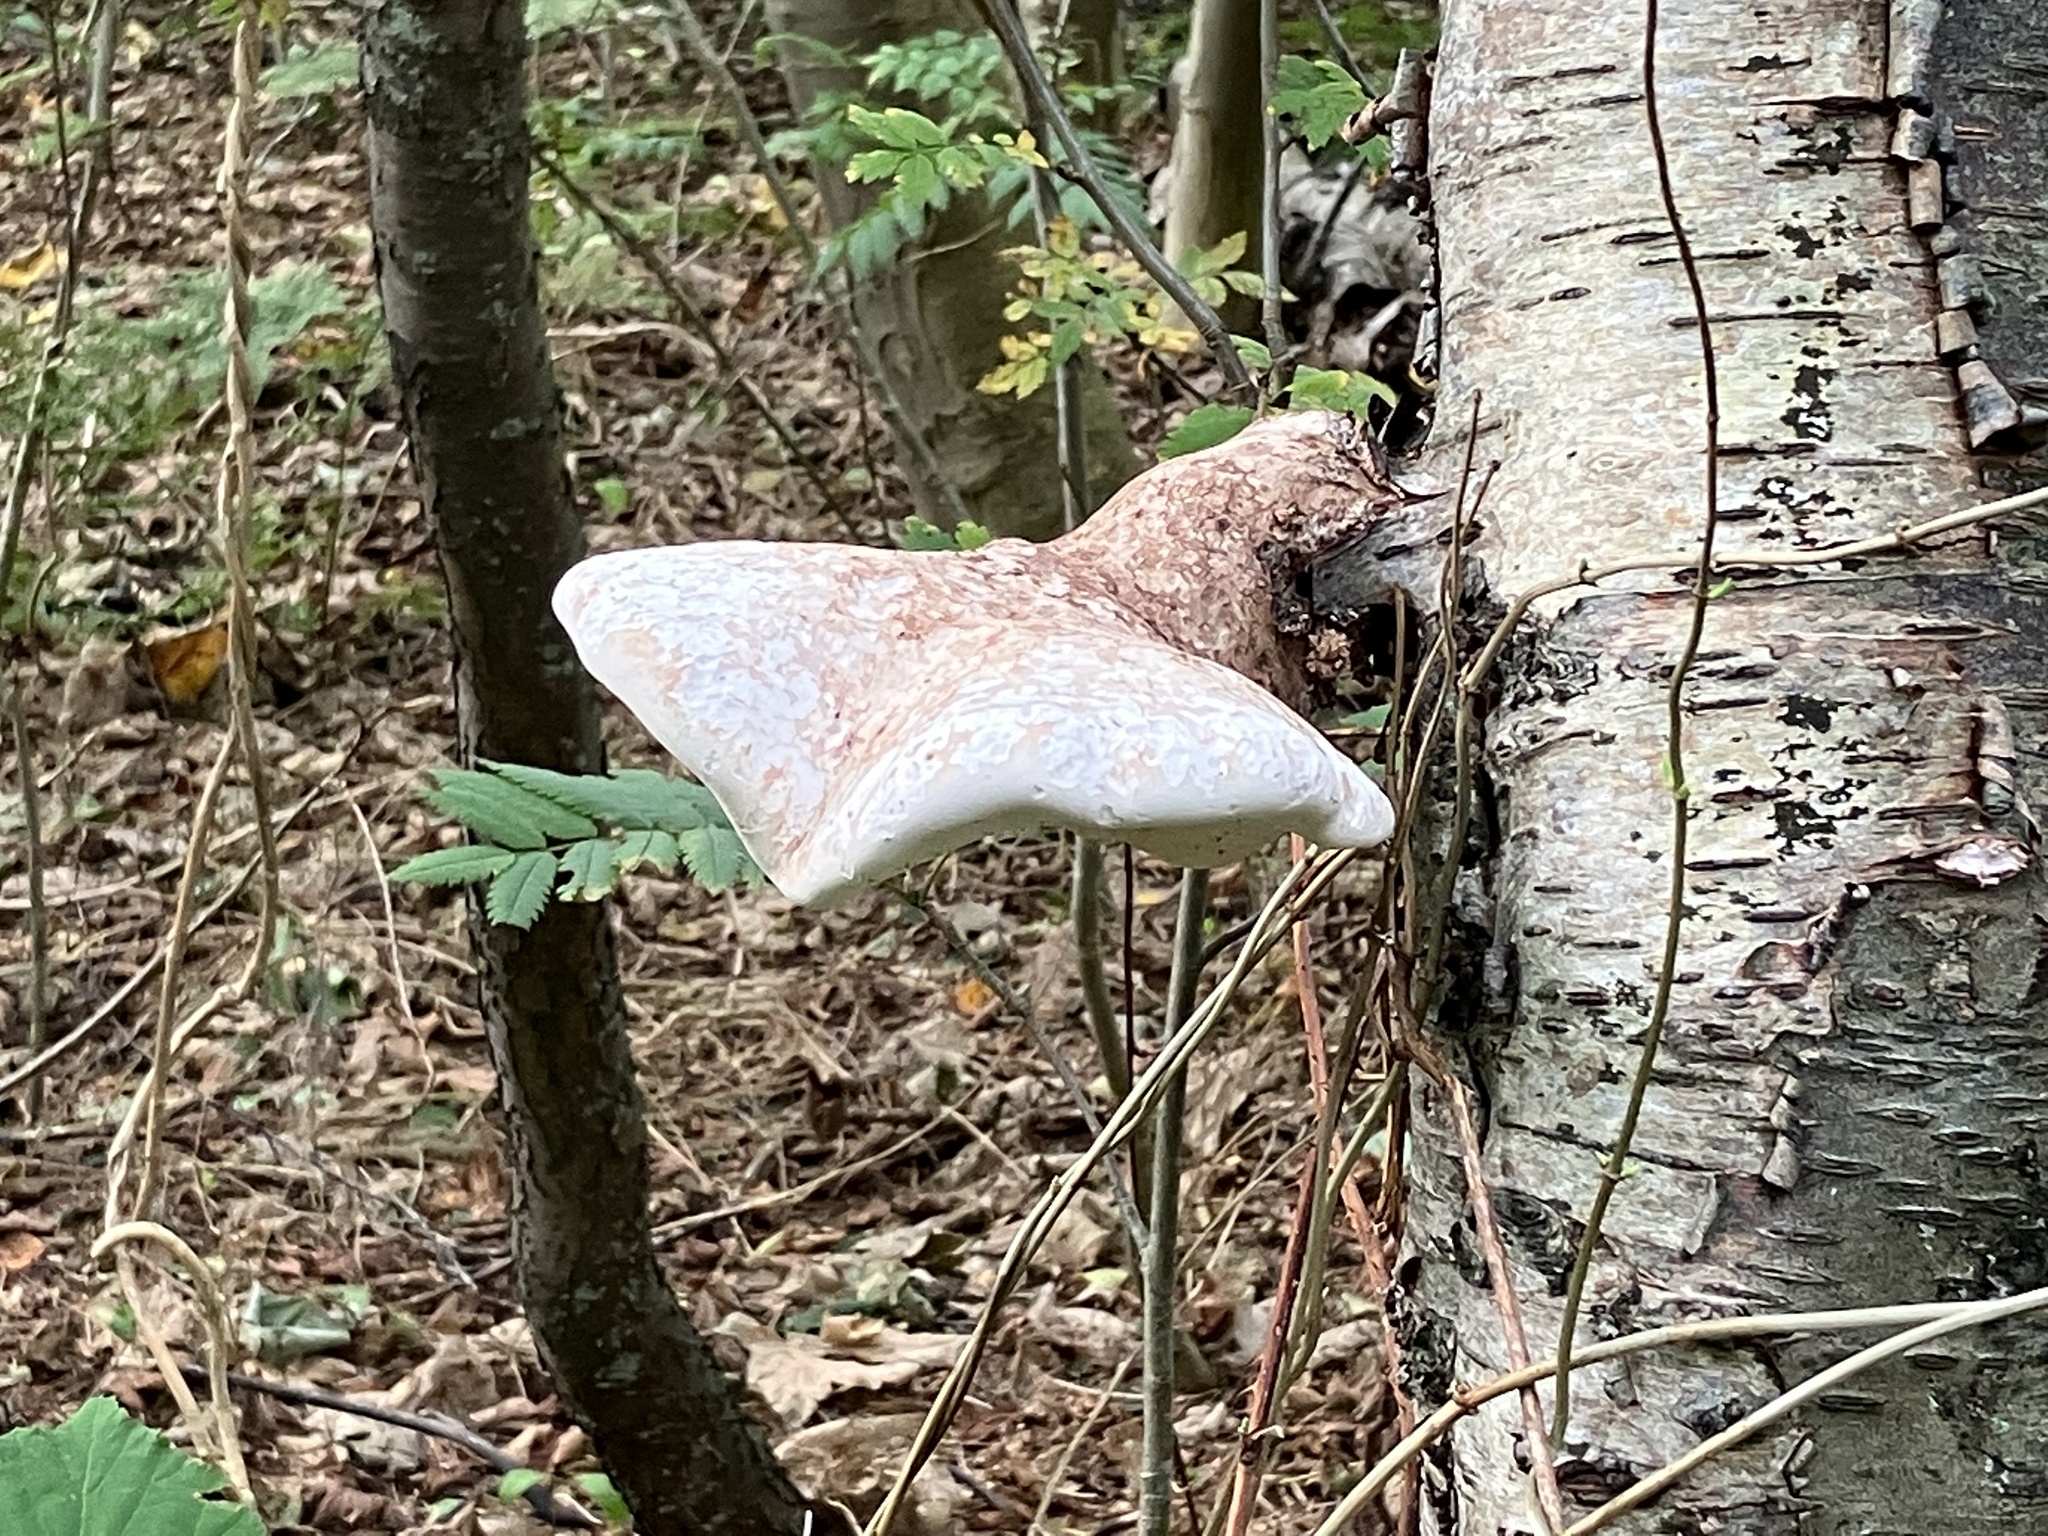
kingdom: Fungi
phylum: Basidiomycota
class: Agaricomycetes
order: Polyporales
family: Fomitopsidaceae
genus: Fomitopsis
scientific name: Fomitopsis betulina
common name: Birch polypore
